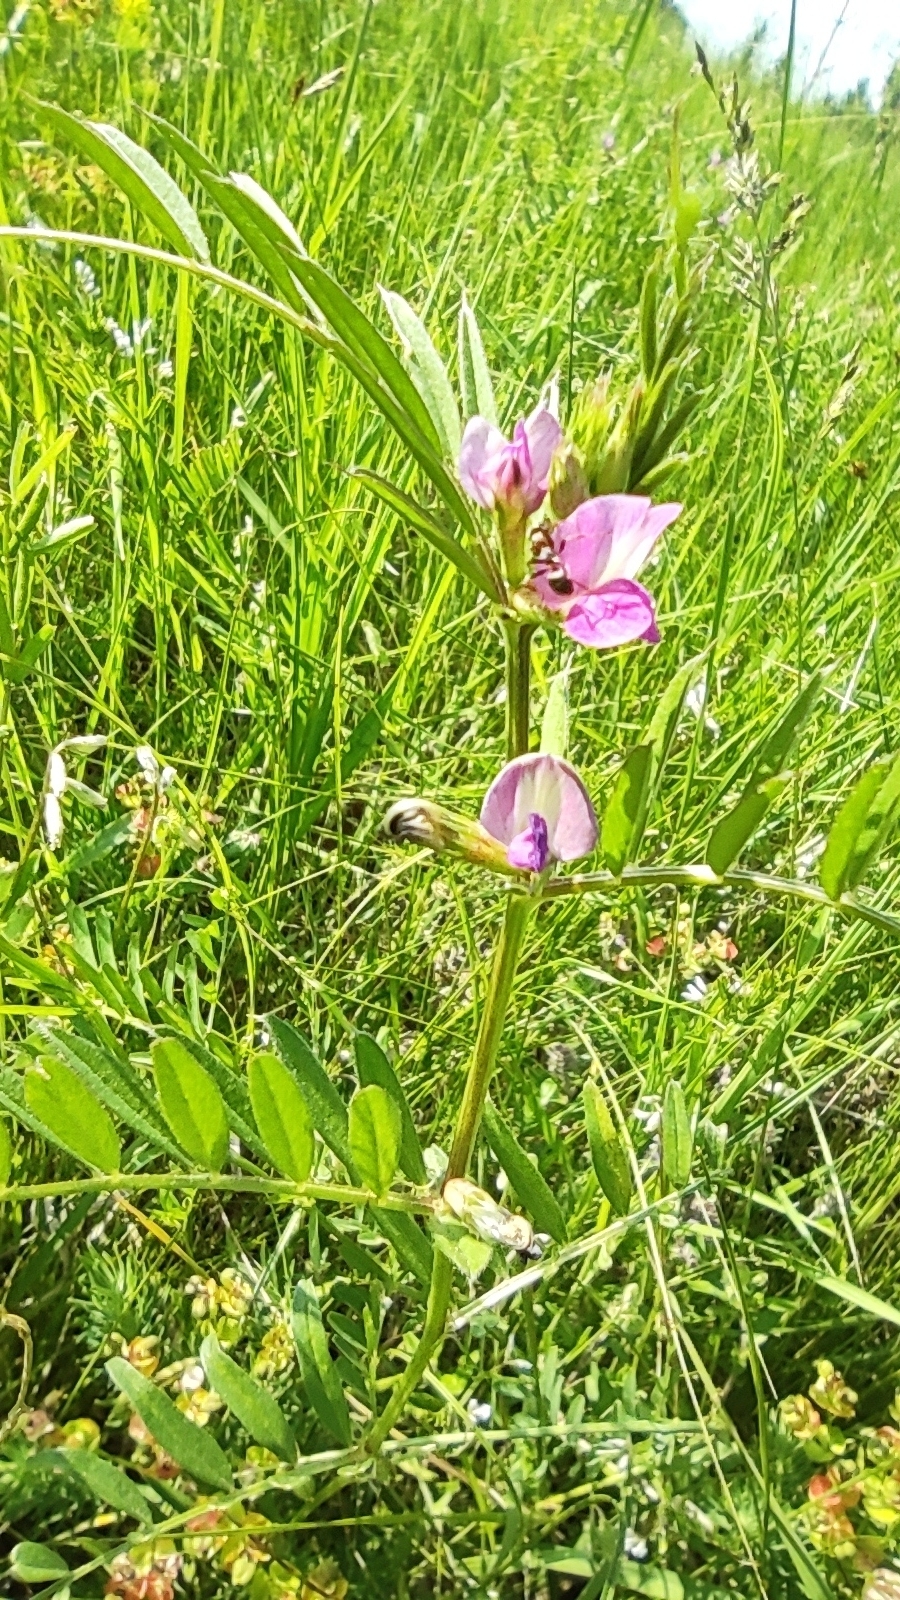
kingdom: Plantae
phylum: Tracheophyta
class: Magnoliopsida
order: Fabales
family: Fabaceae
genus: Vicia
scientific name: Vicia sativa
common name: Garden vetch
